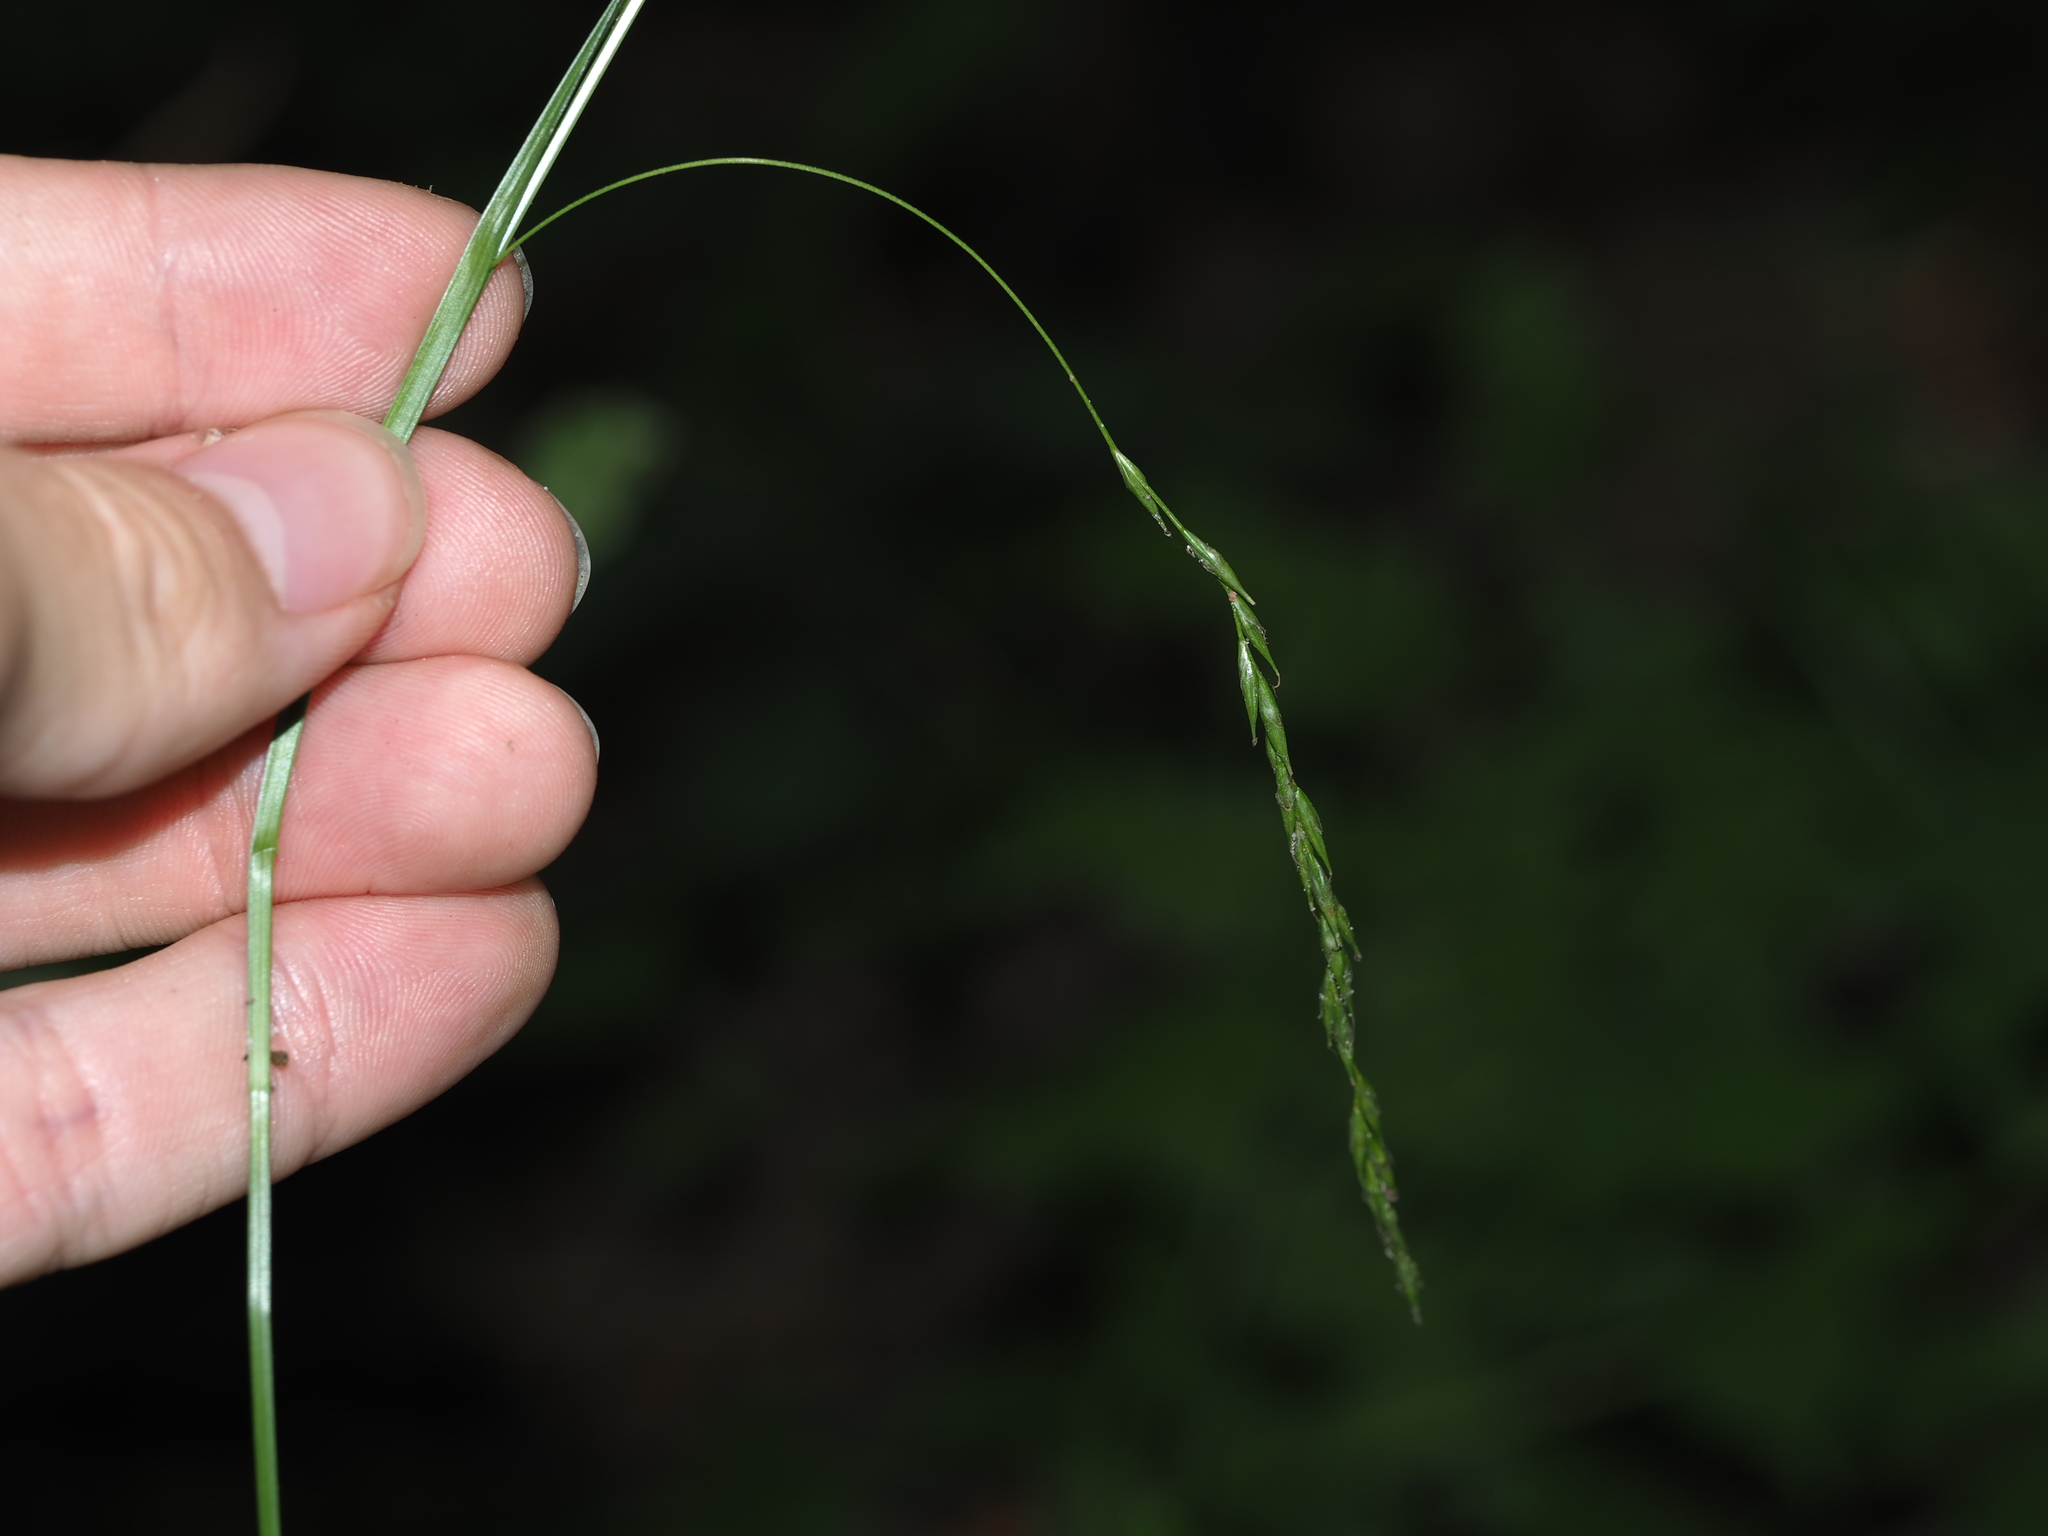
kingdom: Plantae
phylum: Tracheophyta
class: Liliopsida
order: Poales
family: Cyperaceae
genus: Carex
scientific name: Carex debilis
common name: White-edge sedge
